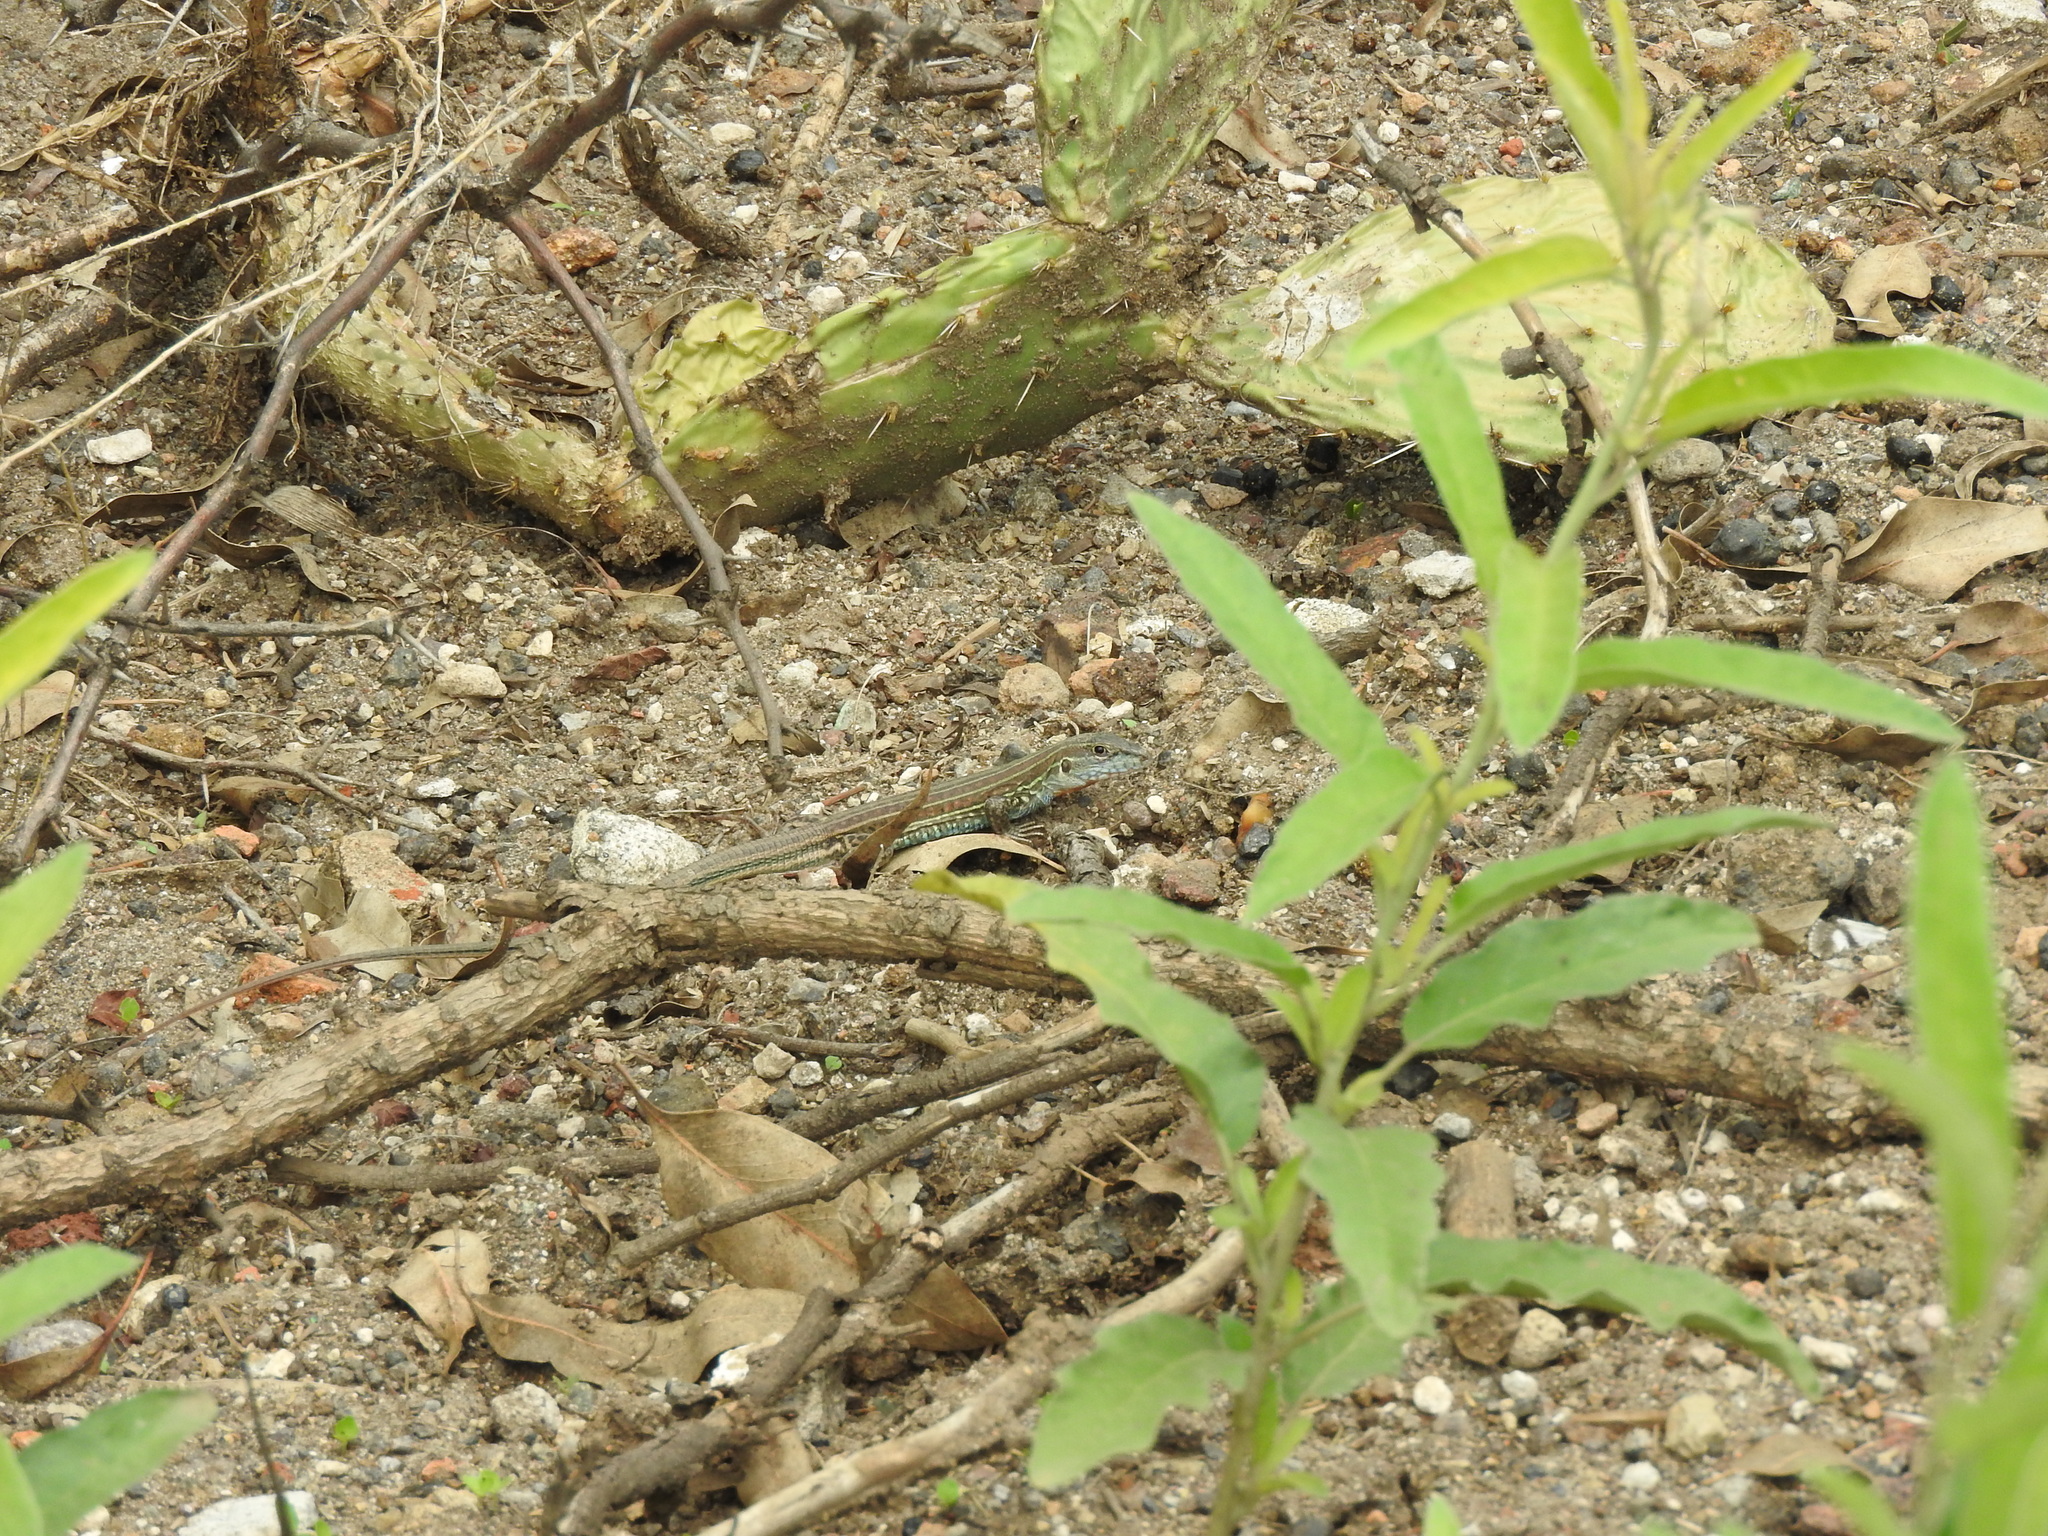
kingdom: Animalia
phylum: Chordata
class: Squamata
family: Teiidae
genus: Aspidoscelis
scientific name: Aspidoscelis gularis
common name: Eastern spotted whiptail
